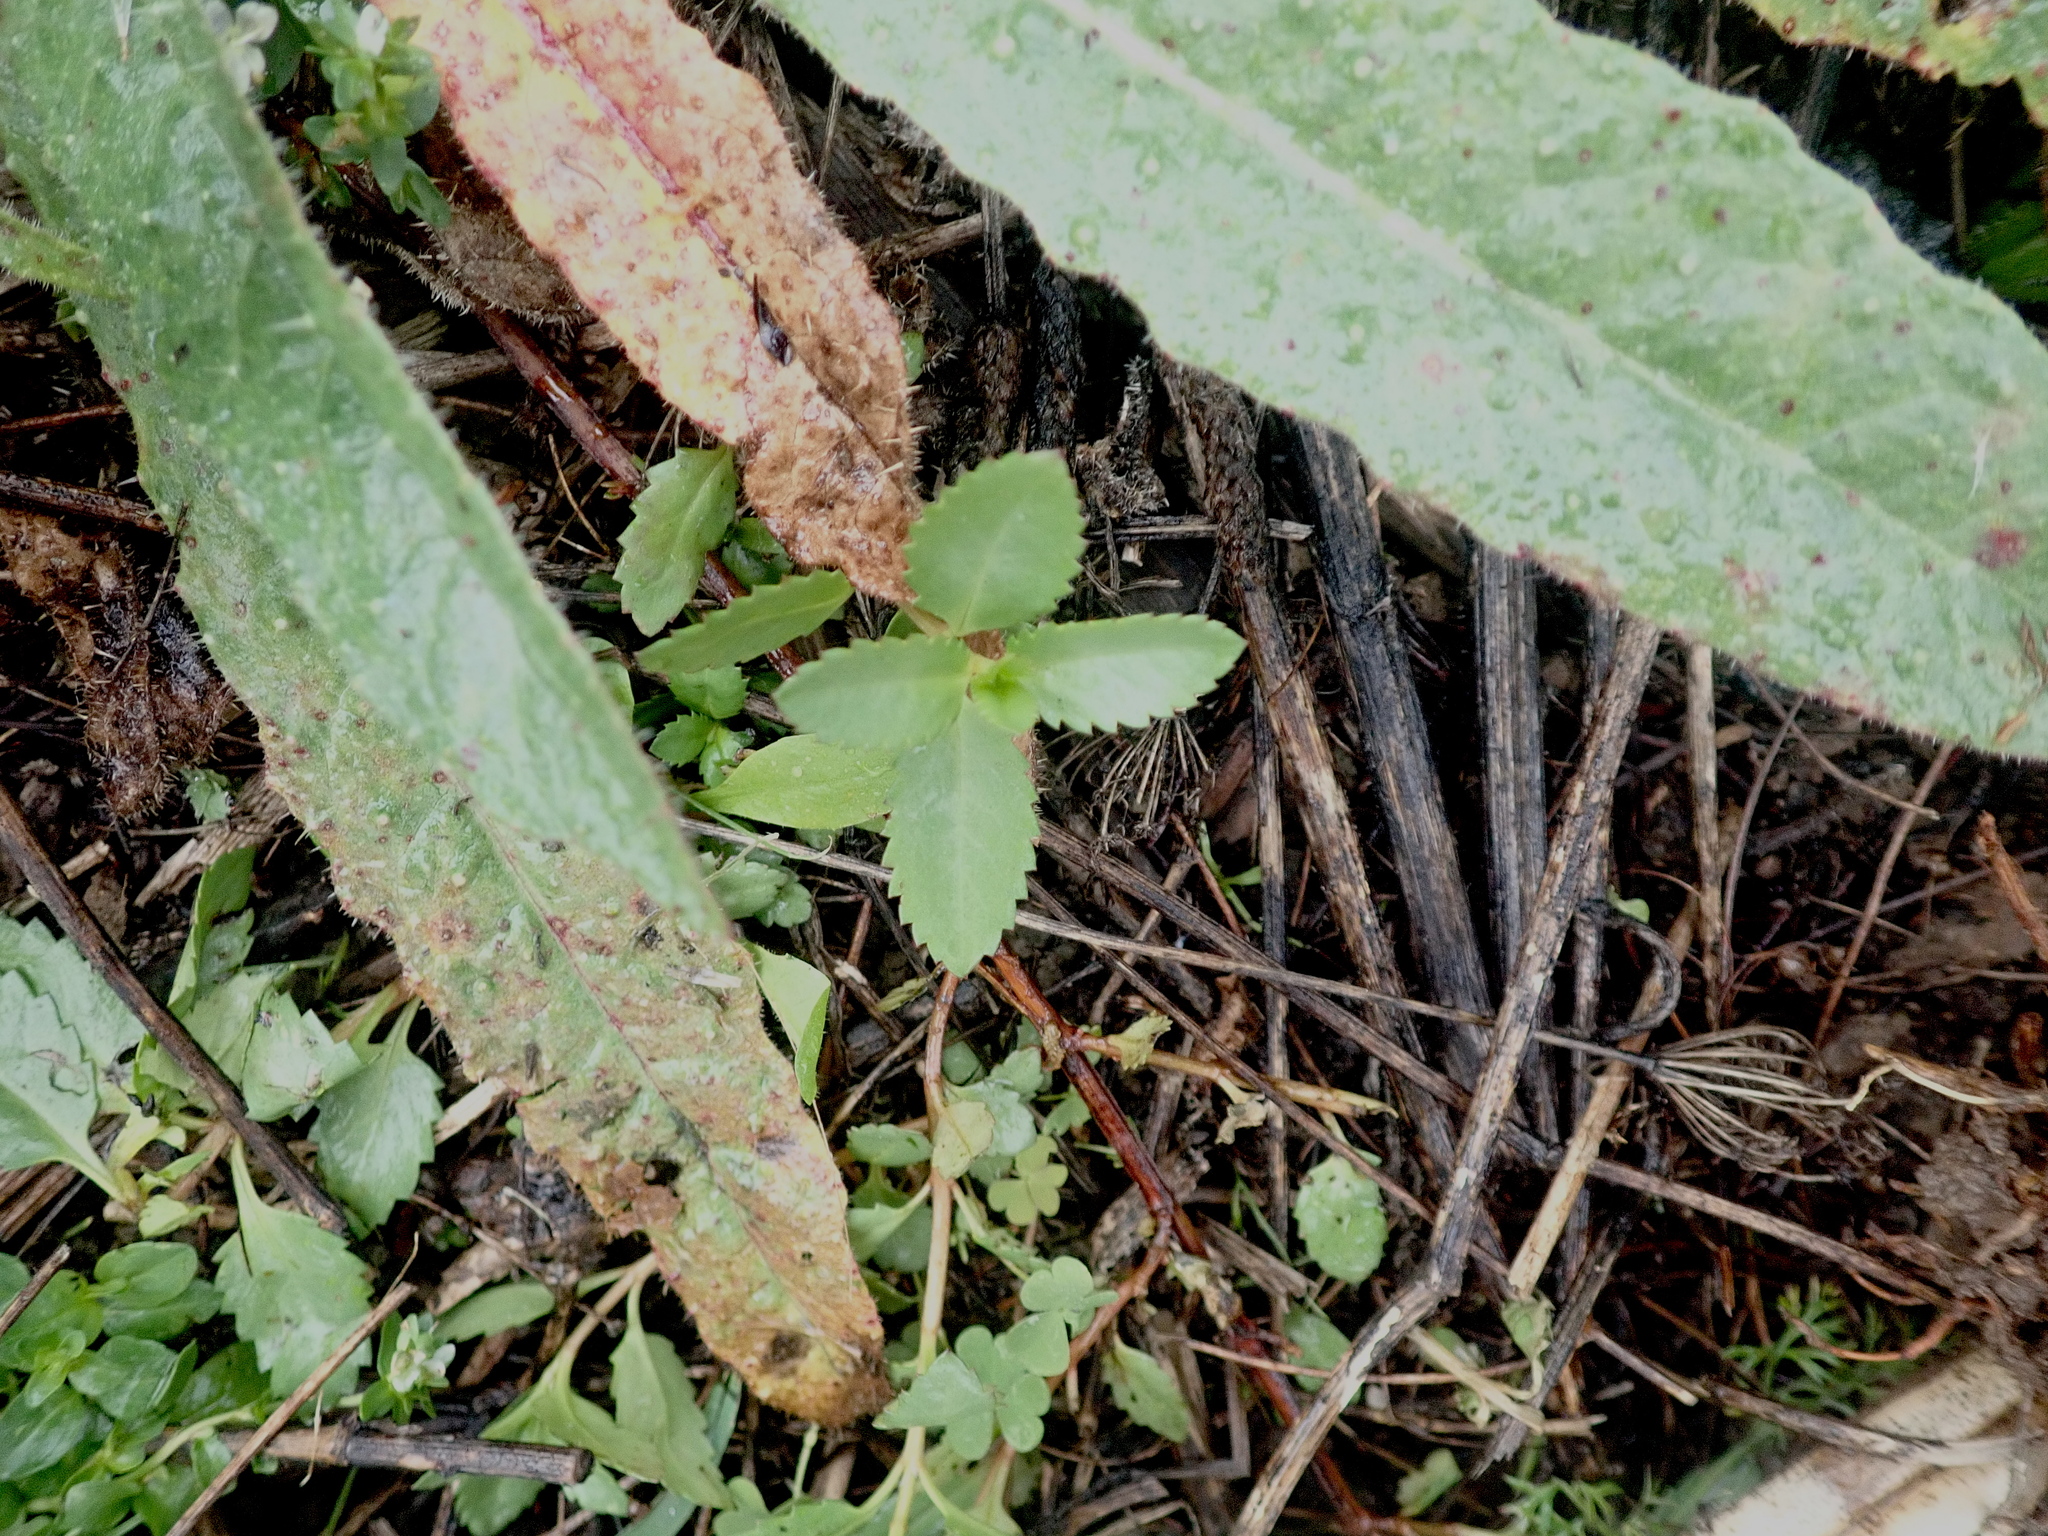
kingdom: Plantae
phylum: Tracheophyta
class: Magnoliopsida
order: Saxifragales
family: Haloragaceae
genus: Haloragis
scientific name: Haloragis erecta
